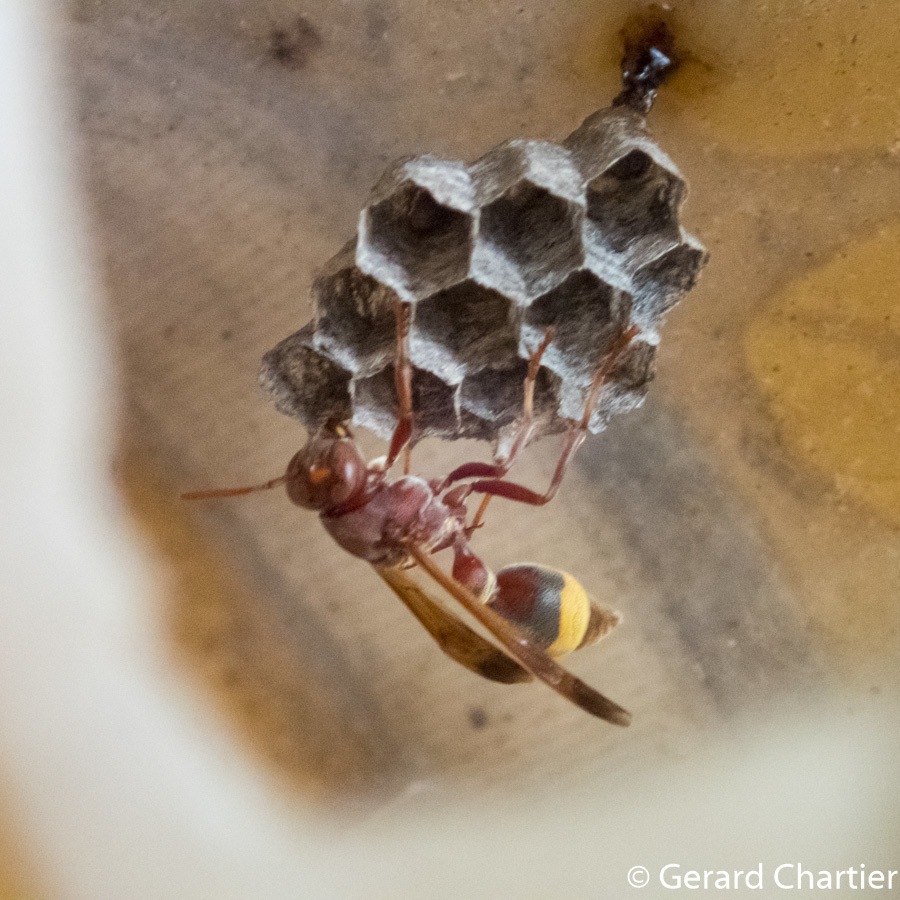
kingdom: Animalia
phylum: Arthropoda
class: Insecta
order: Hymenoptera
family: Vespidae
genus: Ropalidia
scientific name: Ropalidia marginata
